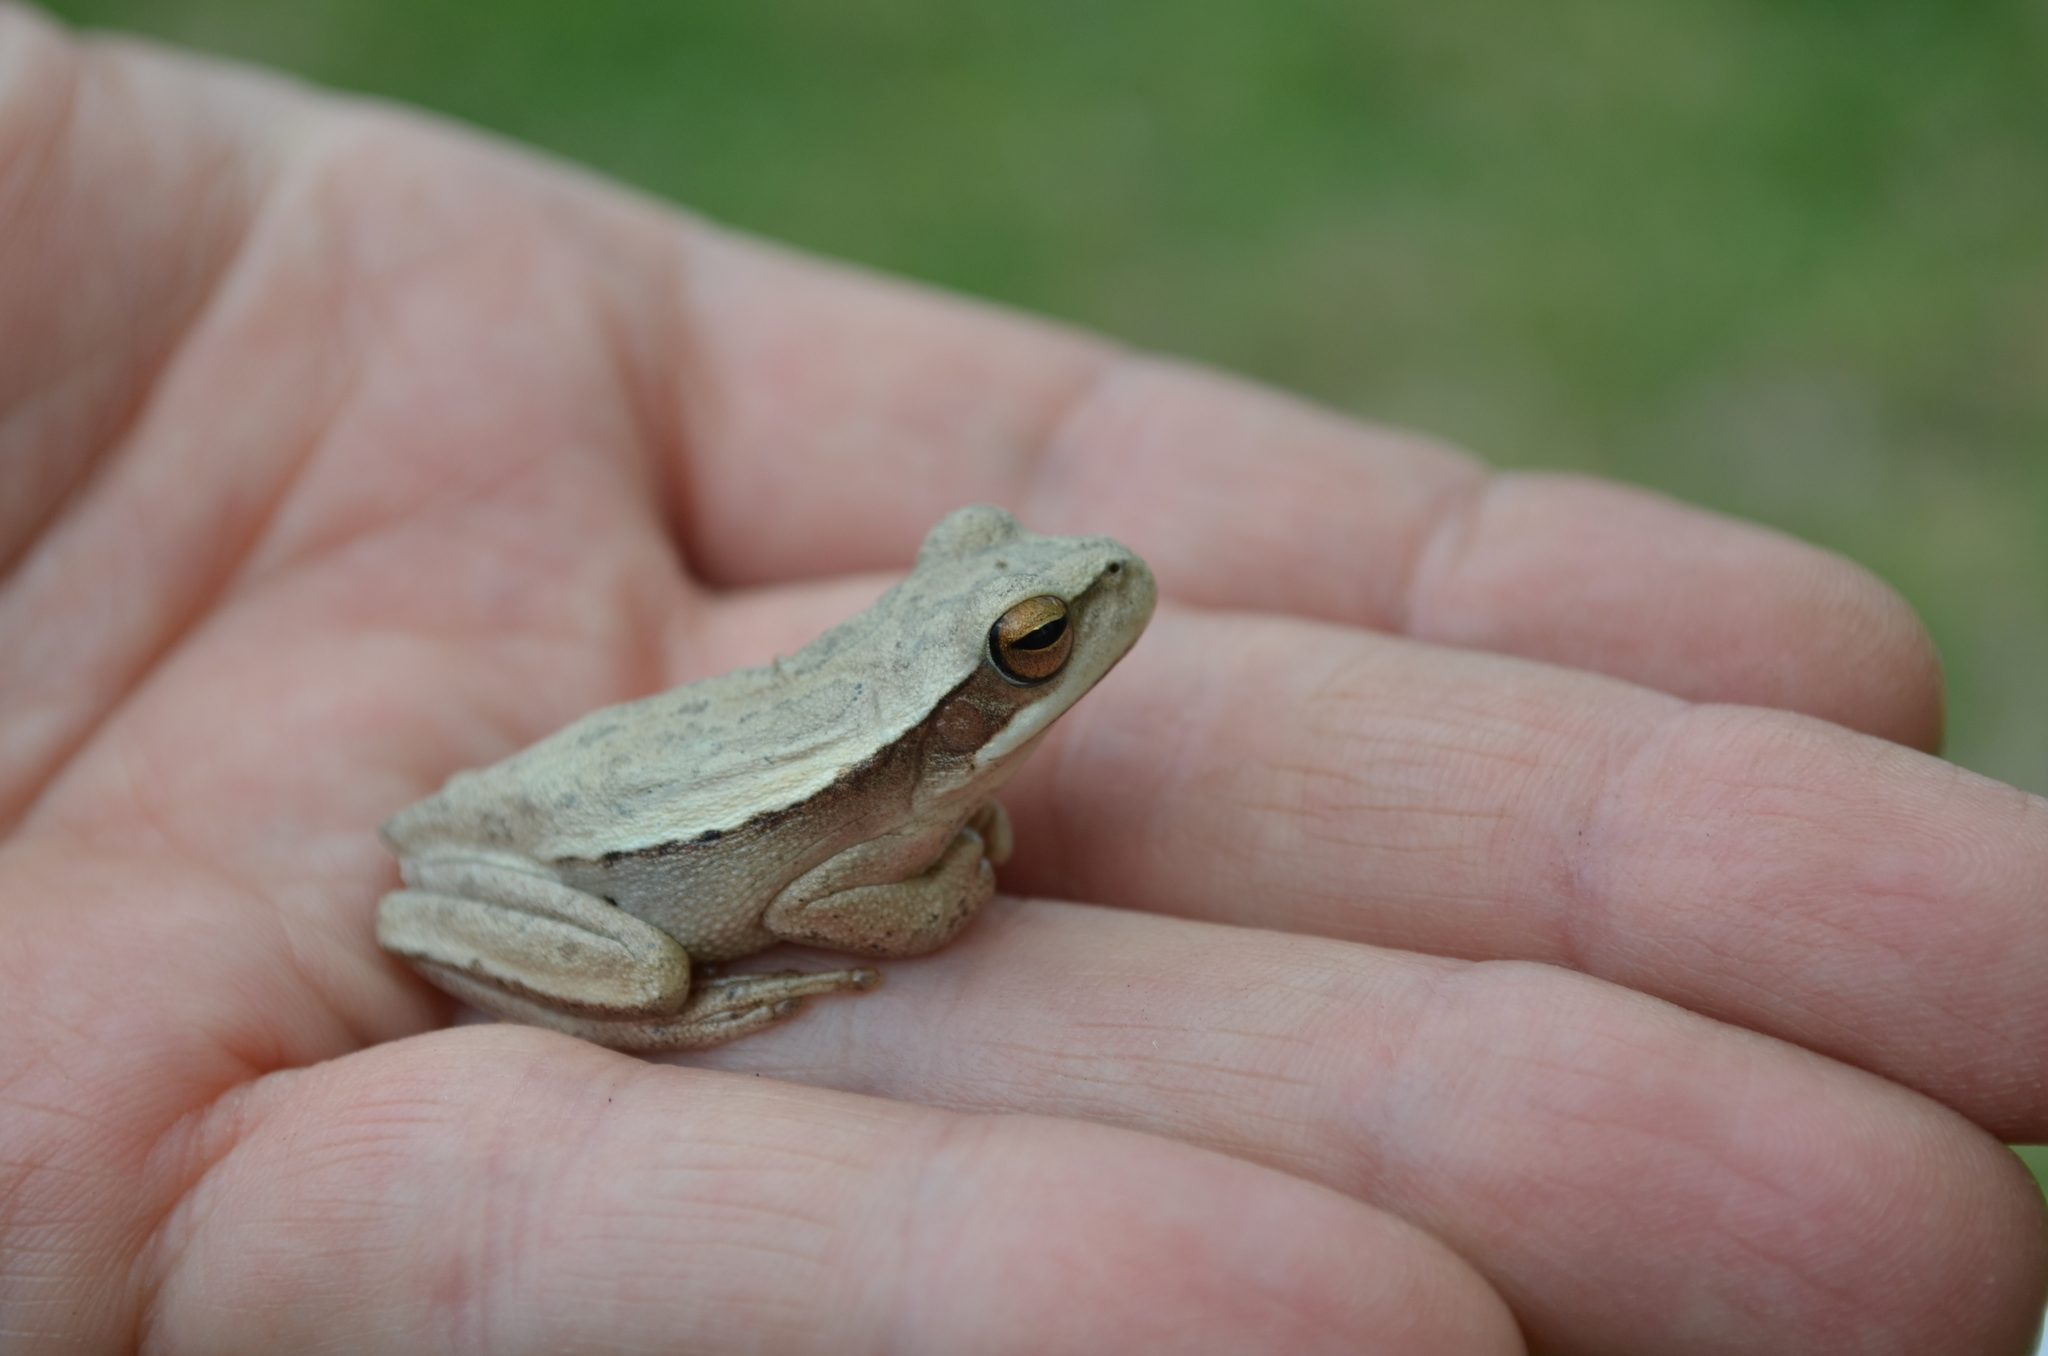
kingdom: Animalia
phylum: Chordata
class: Amphibia
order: Anura
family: Hylidae
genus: Boana
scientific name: Boana pulchella
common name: Montevideo treefrog
